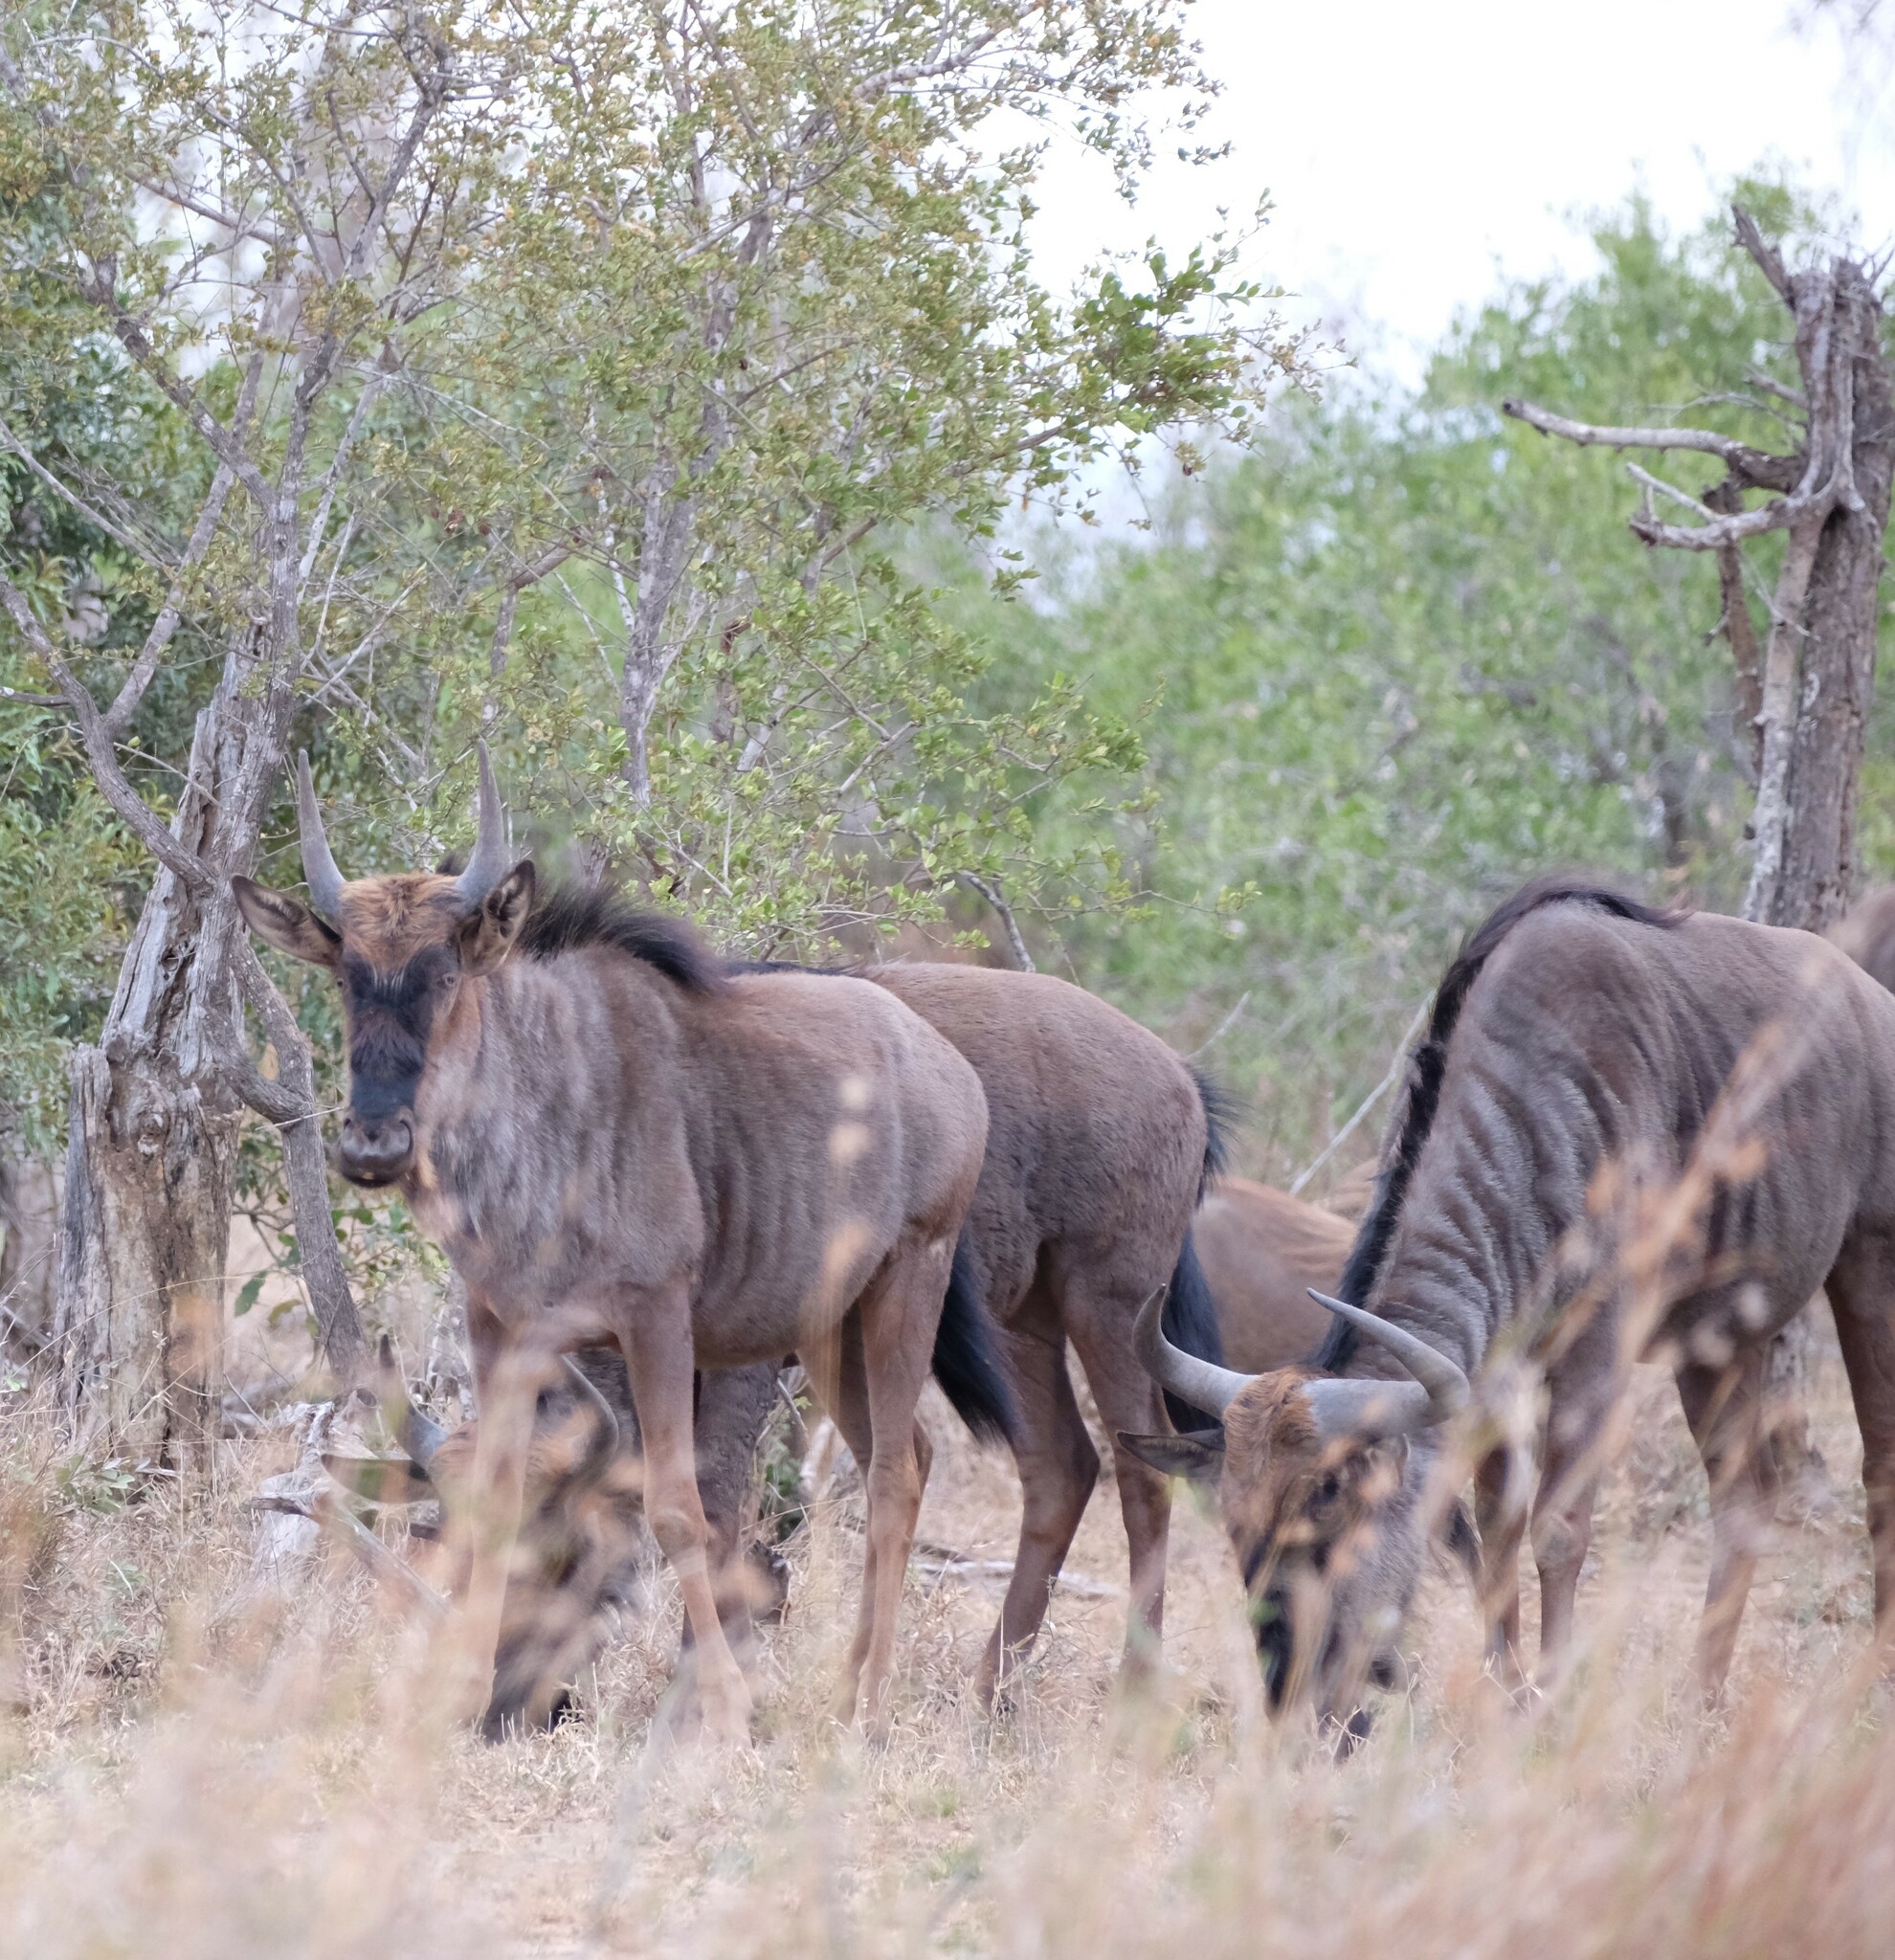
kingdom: Animalia
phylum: Chordata
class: Mammalia
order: Artiodactyla
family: Bovidae
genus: Connochaetes
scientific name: Connochaetes taurinus
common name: Blue wildebeest
